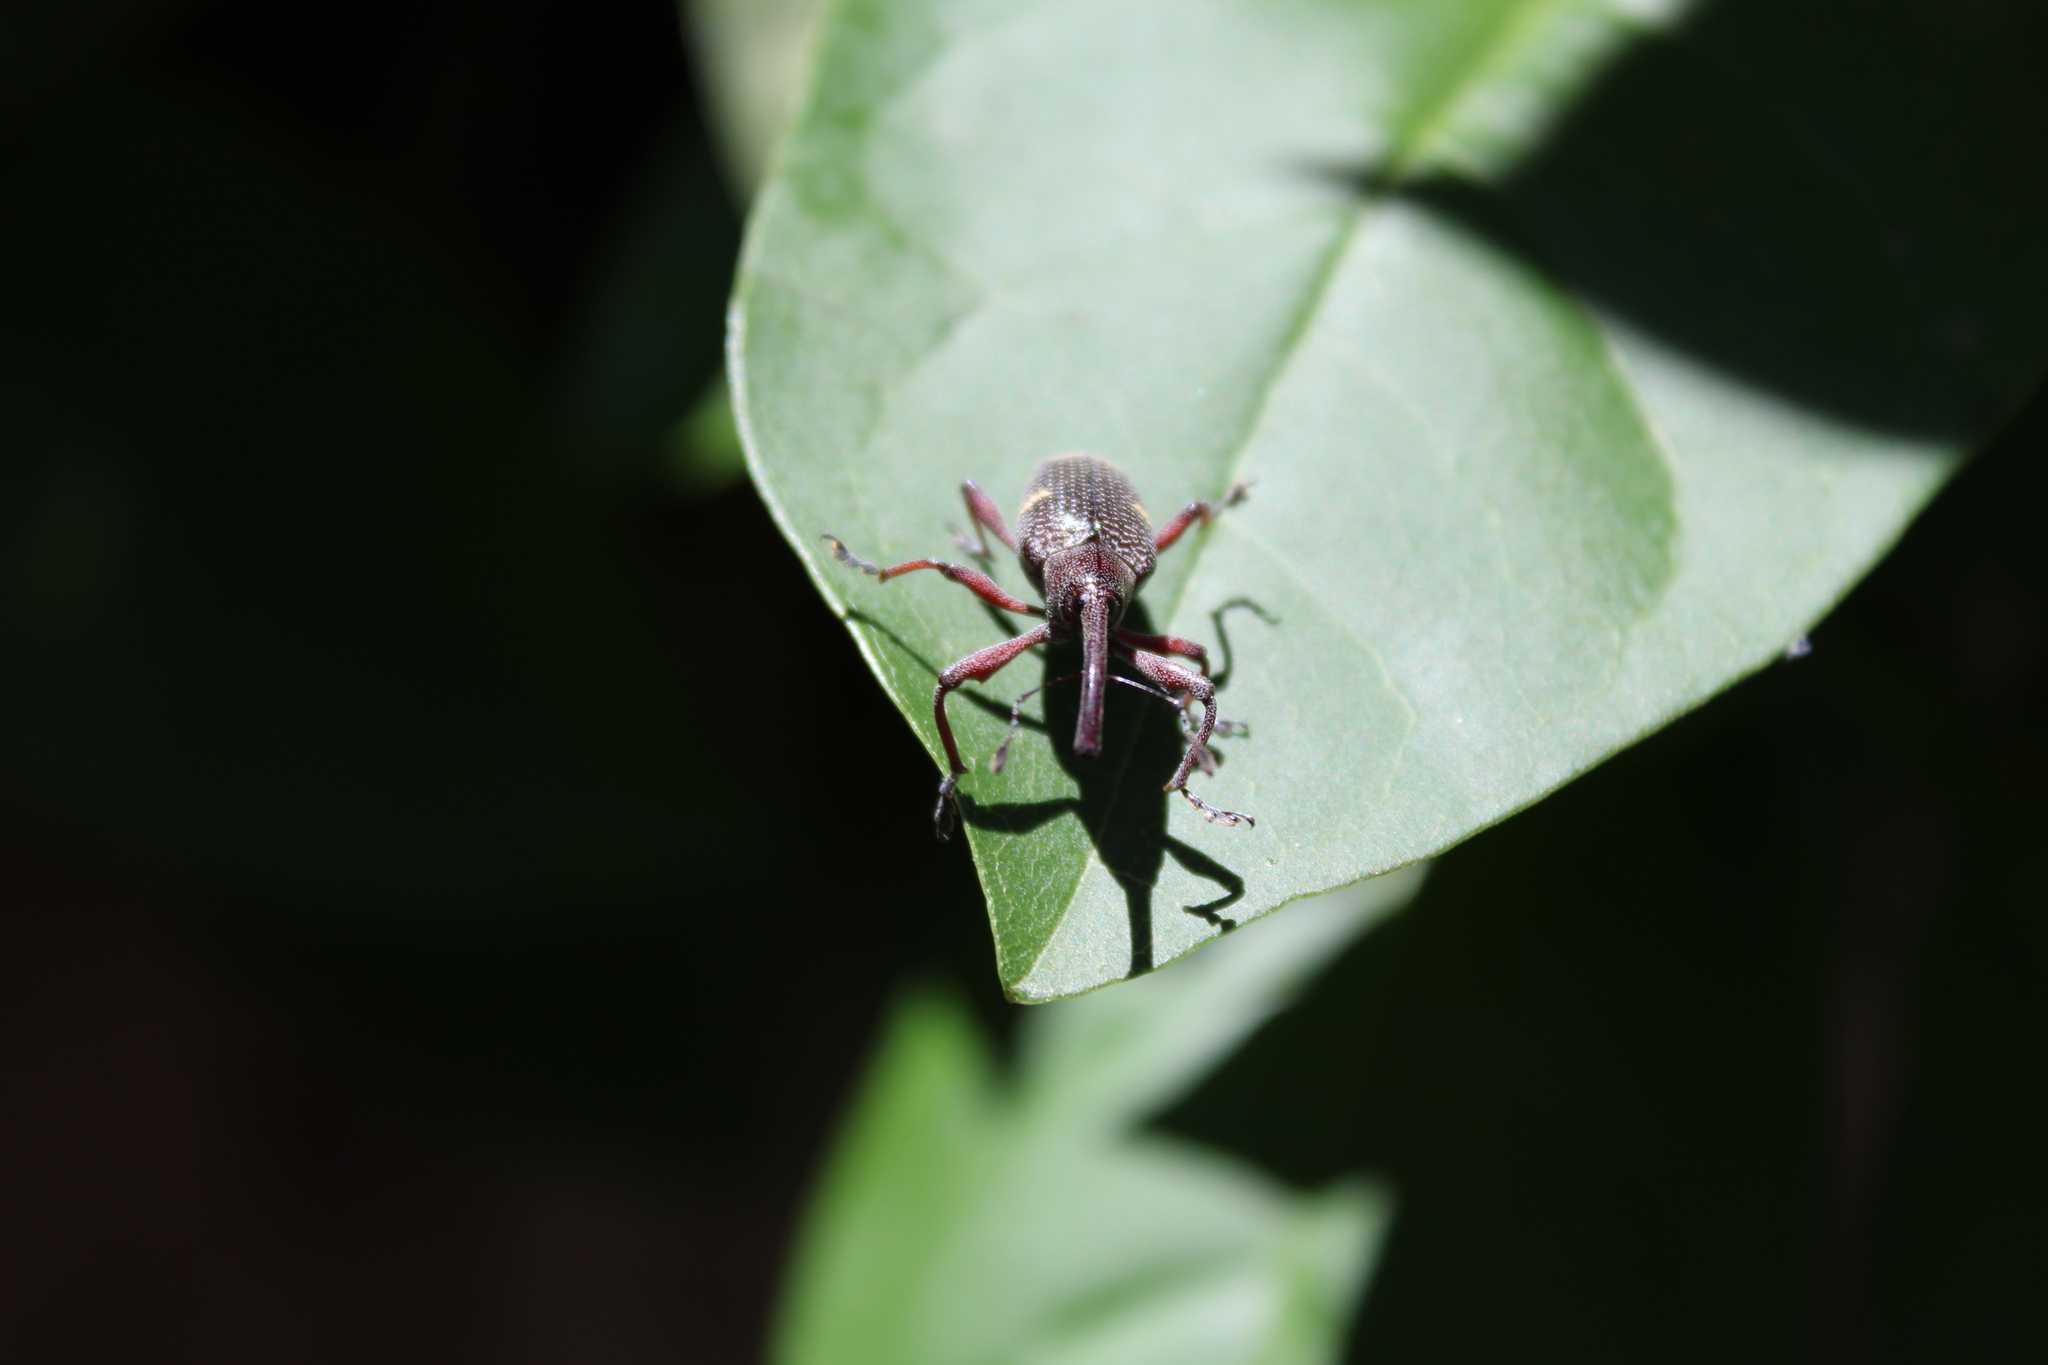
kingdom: Animalia
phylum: Arthropoda
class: Insecta
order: Coleoptera
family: Curculionidae
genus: Heilipus
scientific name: Heilipus lauri
